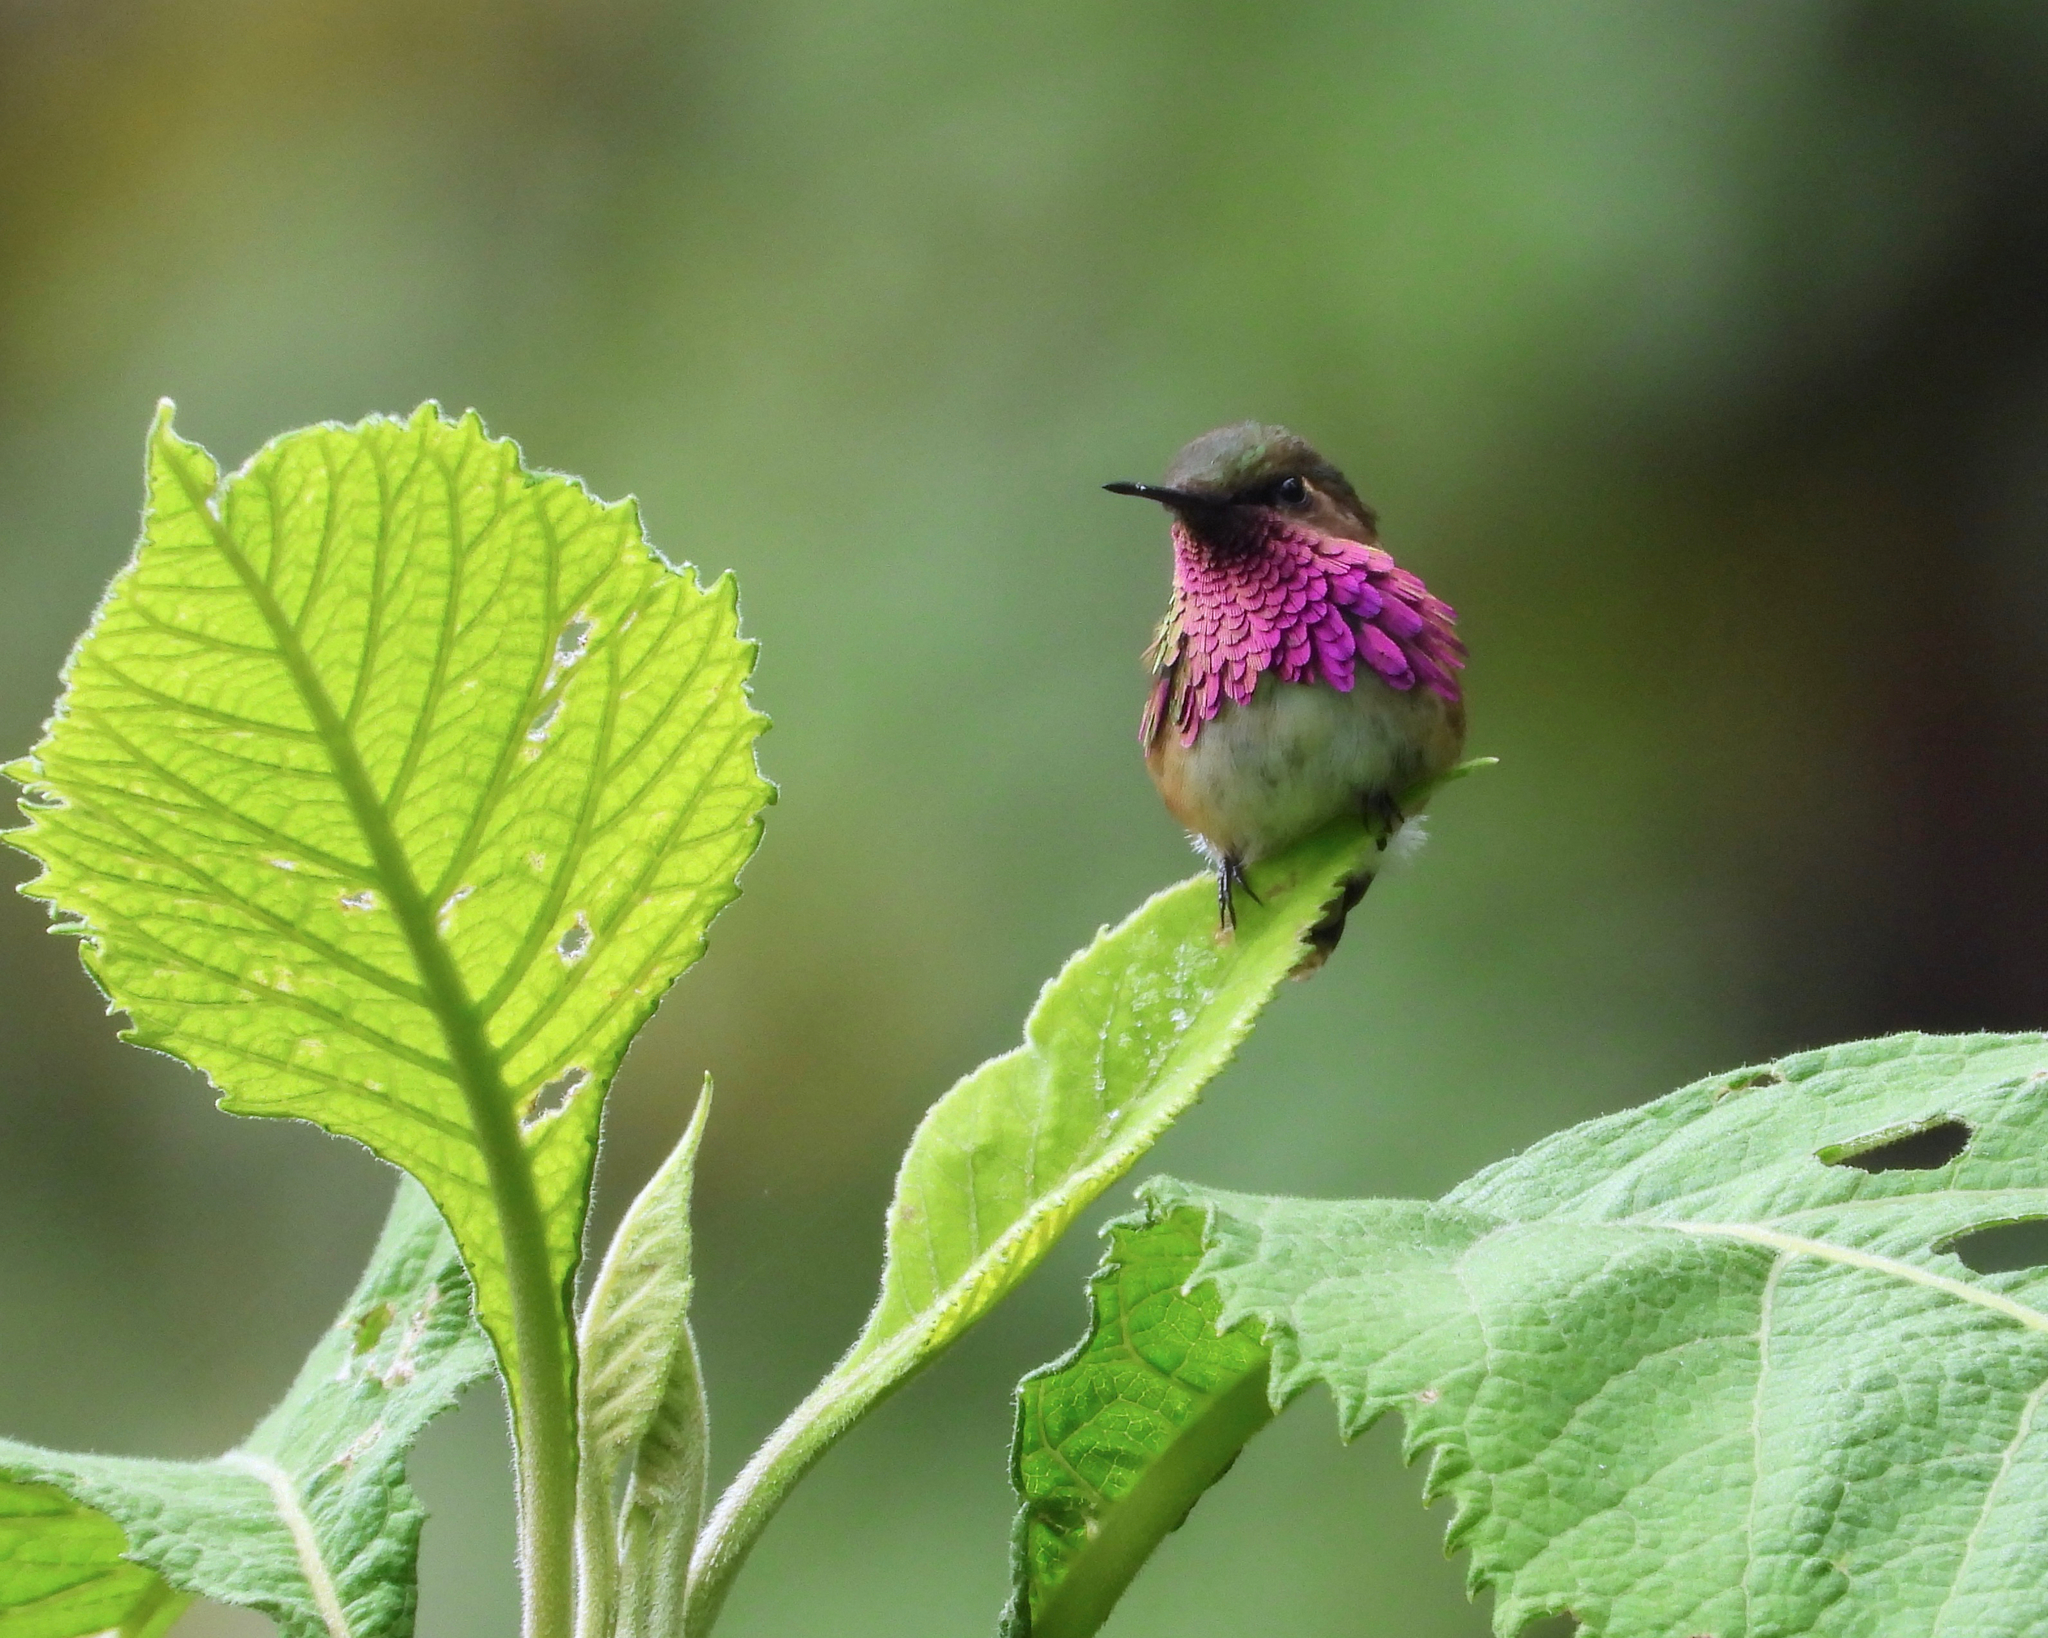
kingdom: Animalia
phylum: Chordata
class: Aves
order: Apodiformes
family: Trochilidae
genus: Selasphorus
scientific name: Selasphorus ellioti
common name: Wine-throated hummingbird
